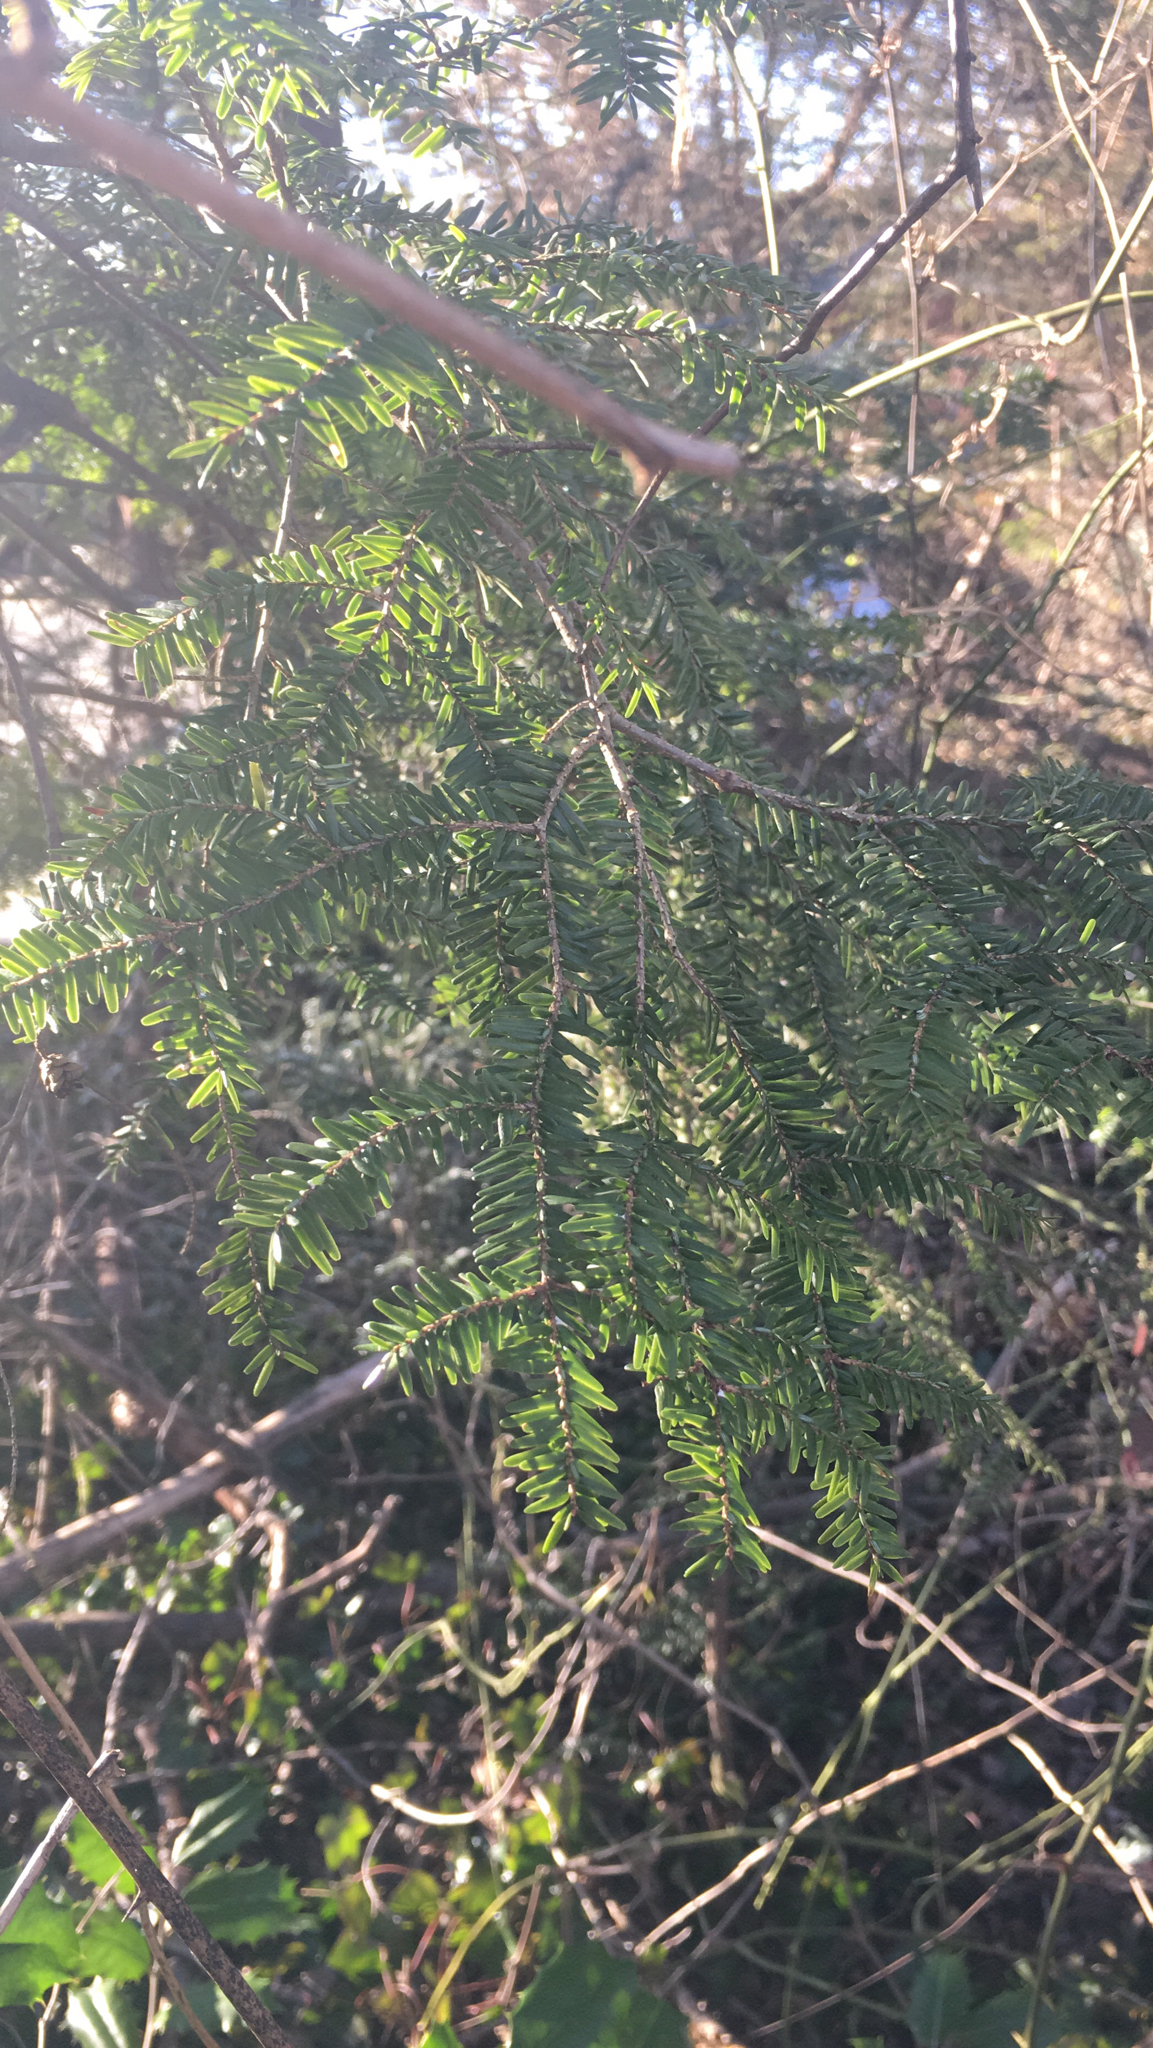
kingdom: Plantae
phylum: Tracheophyta
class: Pinopsida
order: Pinales
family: Pinaceae
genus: Tsuga
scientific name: Tsuga canadensis
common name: Eastern hemlock
